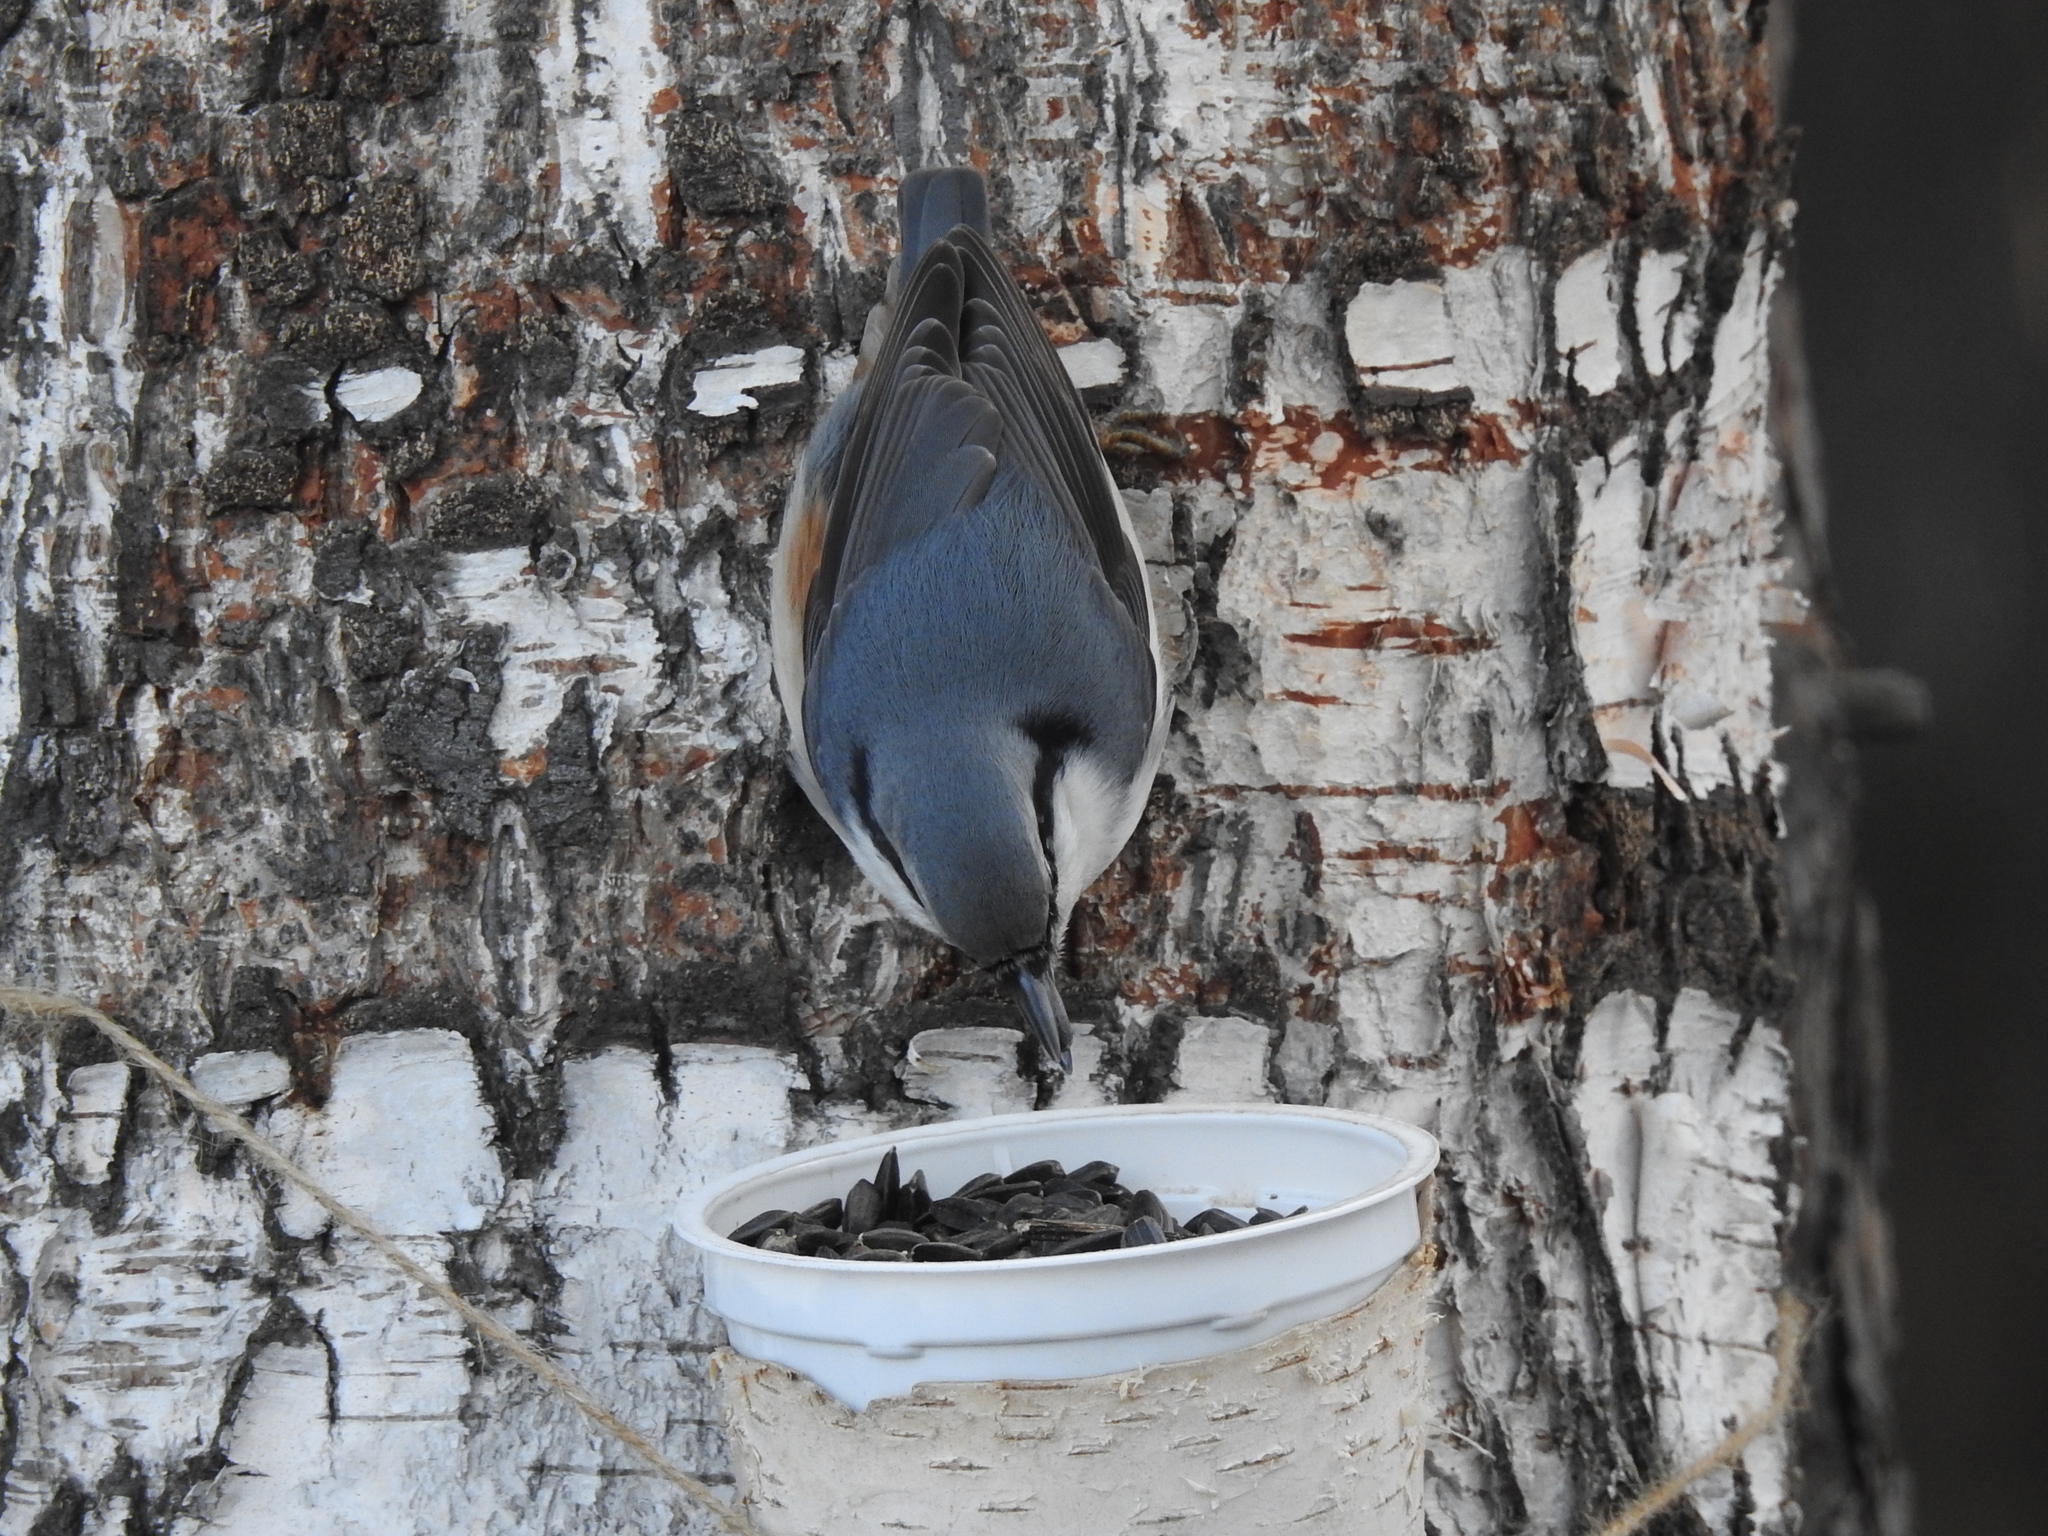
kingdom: Animalia
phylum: Chordata
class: Aves
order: Passeriformes
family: Sittidae
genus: Sitta
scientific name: Sitta europaea
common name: Eurasian nuthatch
